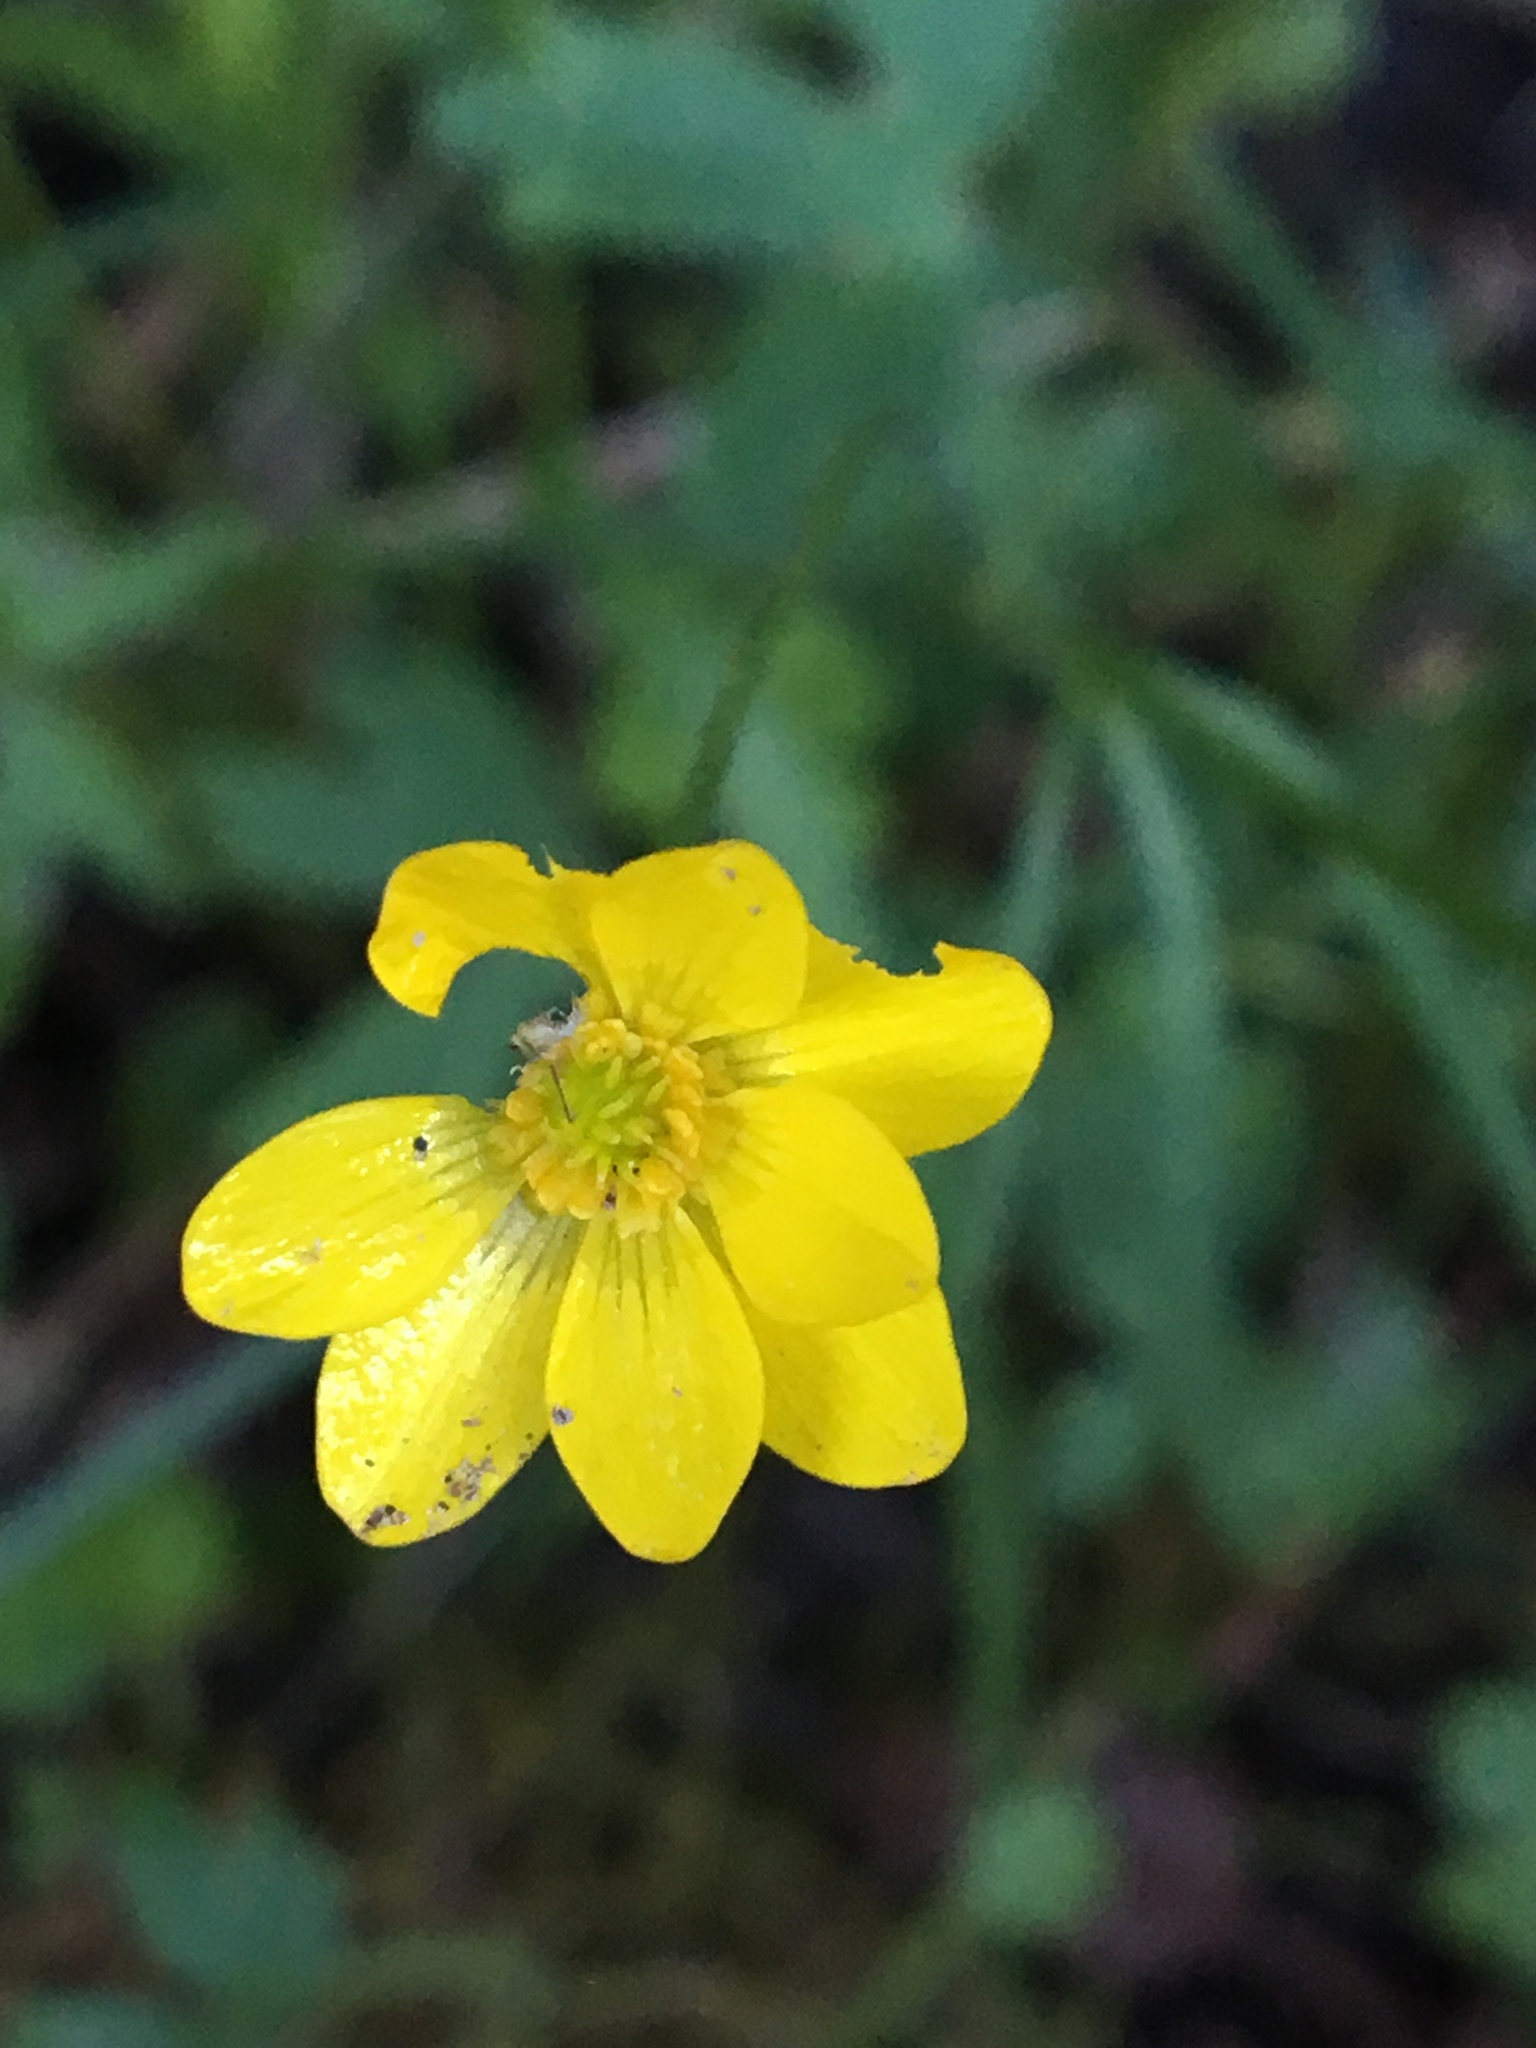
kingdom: Plantae
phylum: Tracheophyta
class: Magnoliopsida
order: Ranunculales
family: Ranunculaceae
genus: Ranunculus
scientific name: Ranunculus californicus
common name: California buttercup
